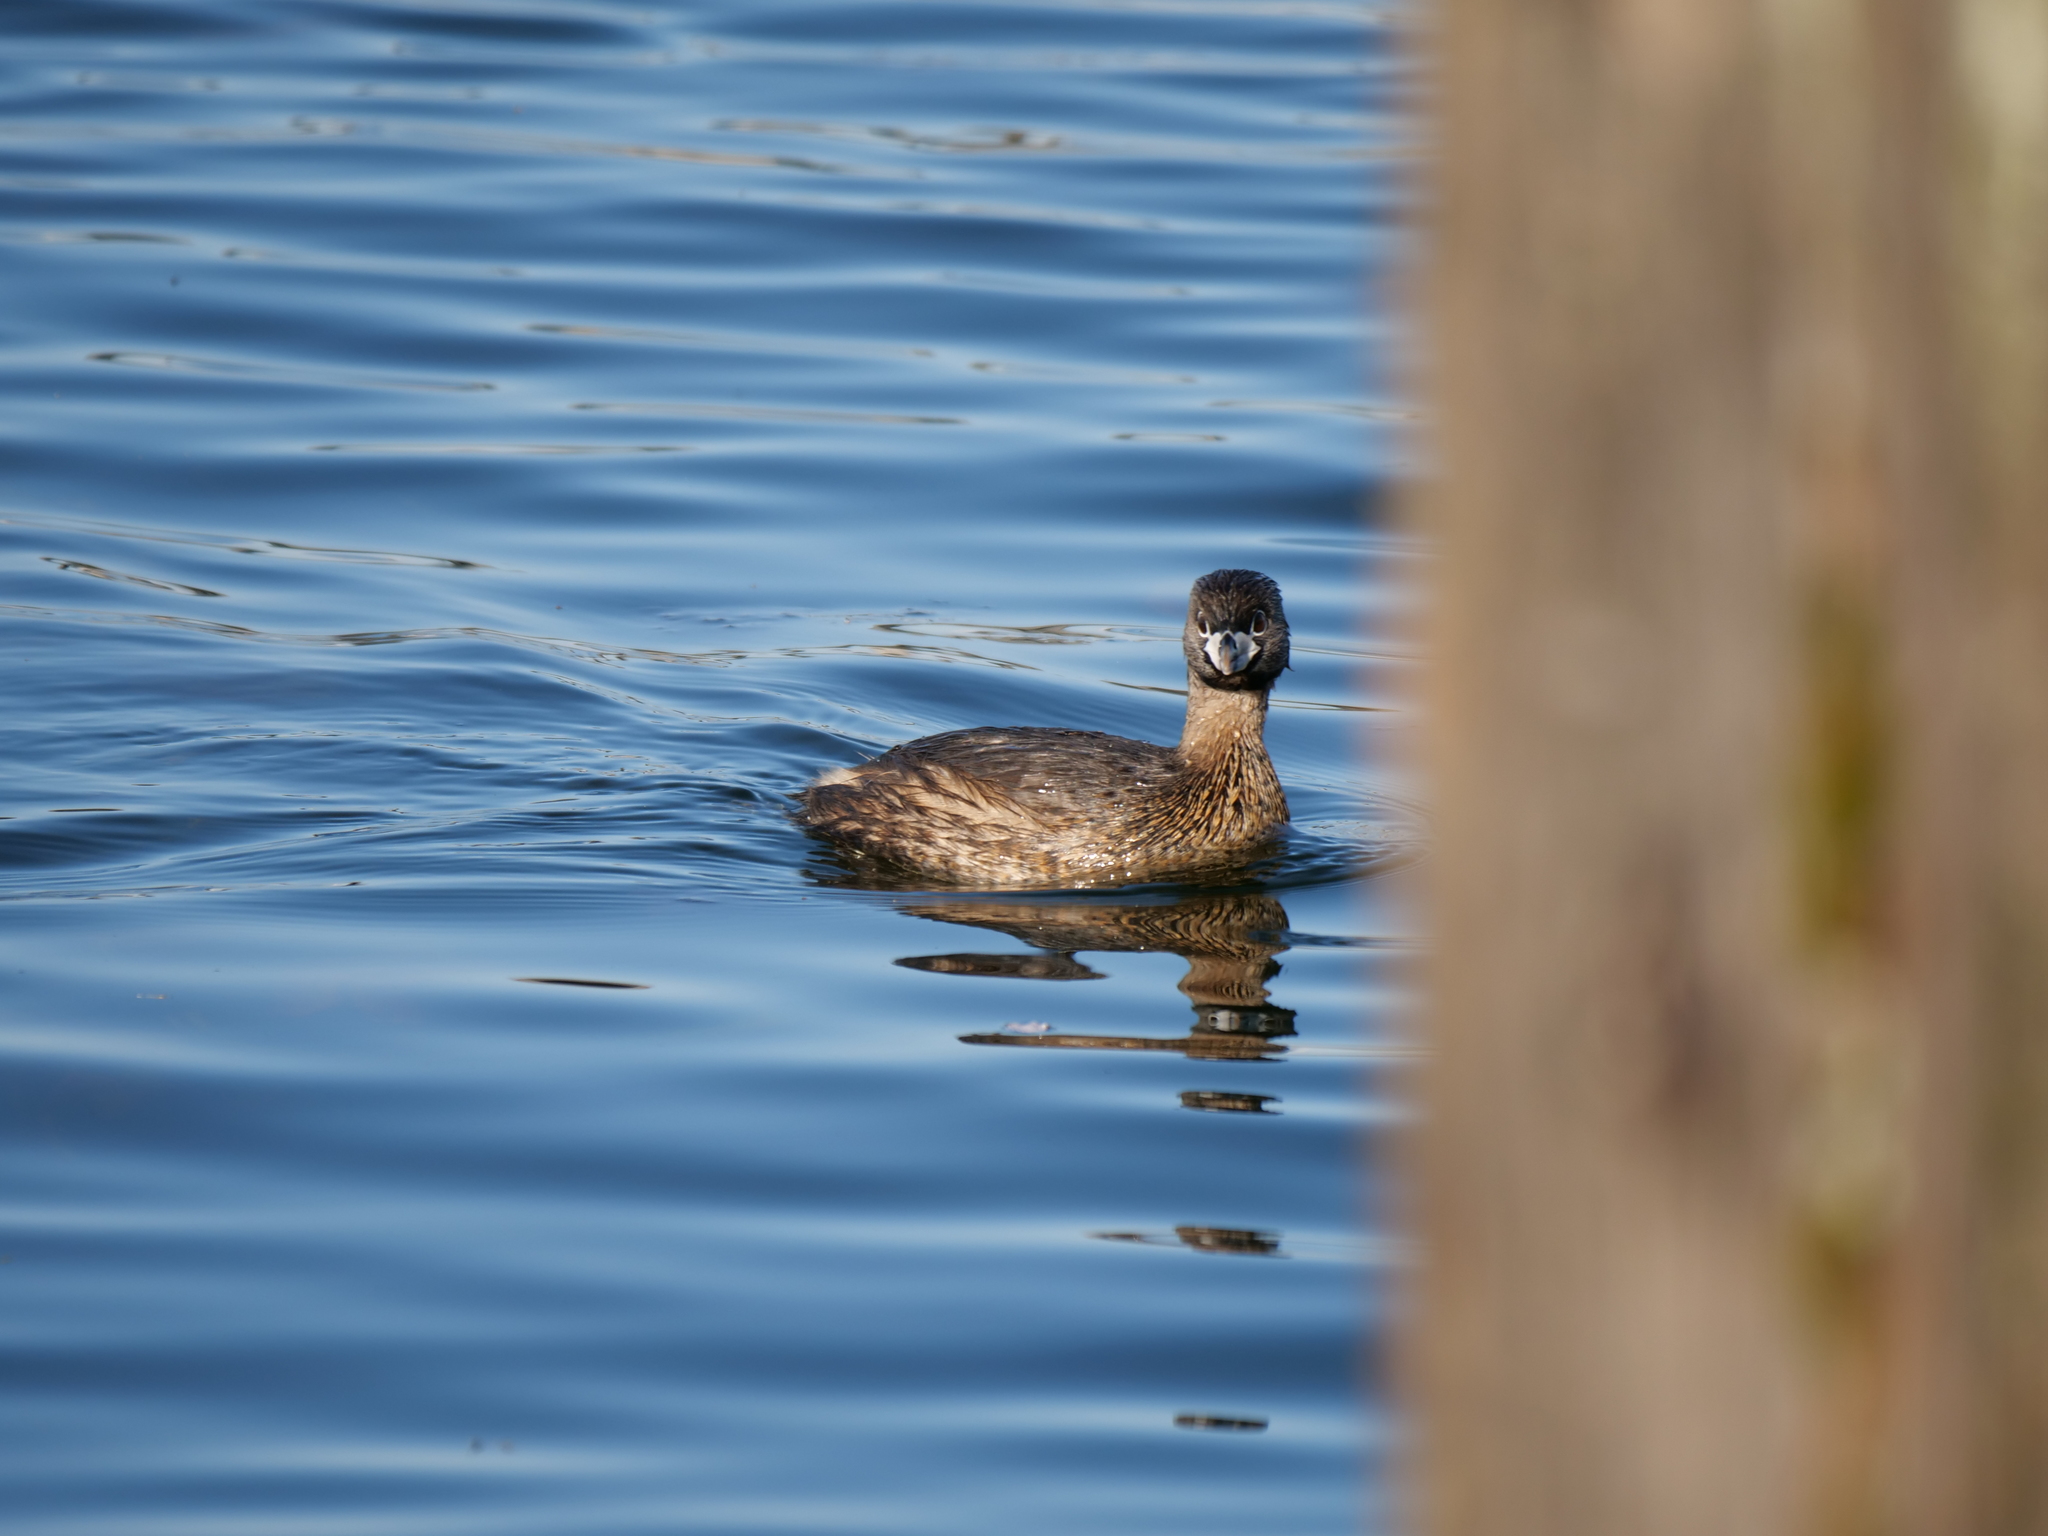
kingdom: Animalia
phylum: Chordata
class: Aves
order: Podicipediformes
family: Podicipedidae
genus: Podilymbus
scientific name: Podilymbus podiceps
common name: Pied-billed grebe
